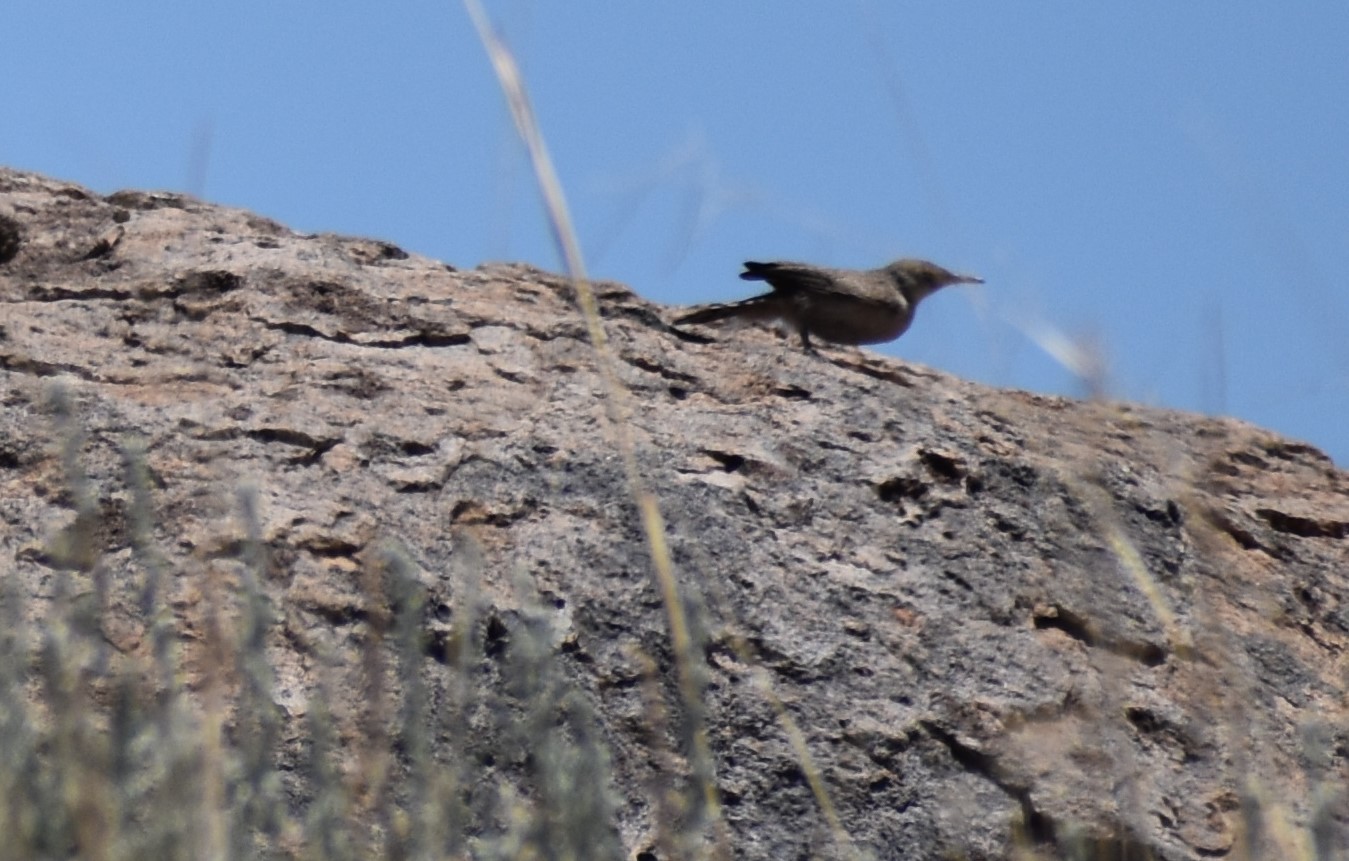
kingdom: Animalia
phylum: Chordata
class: Aves
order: Passeriformes
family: Troglodytidae
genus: Salpinctes
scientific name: Salpinctes obsoletus
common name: Rock wren
